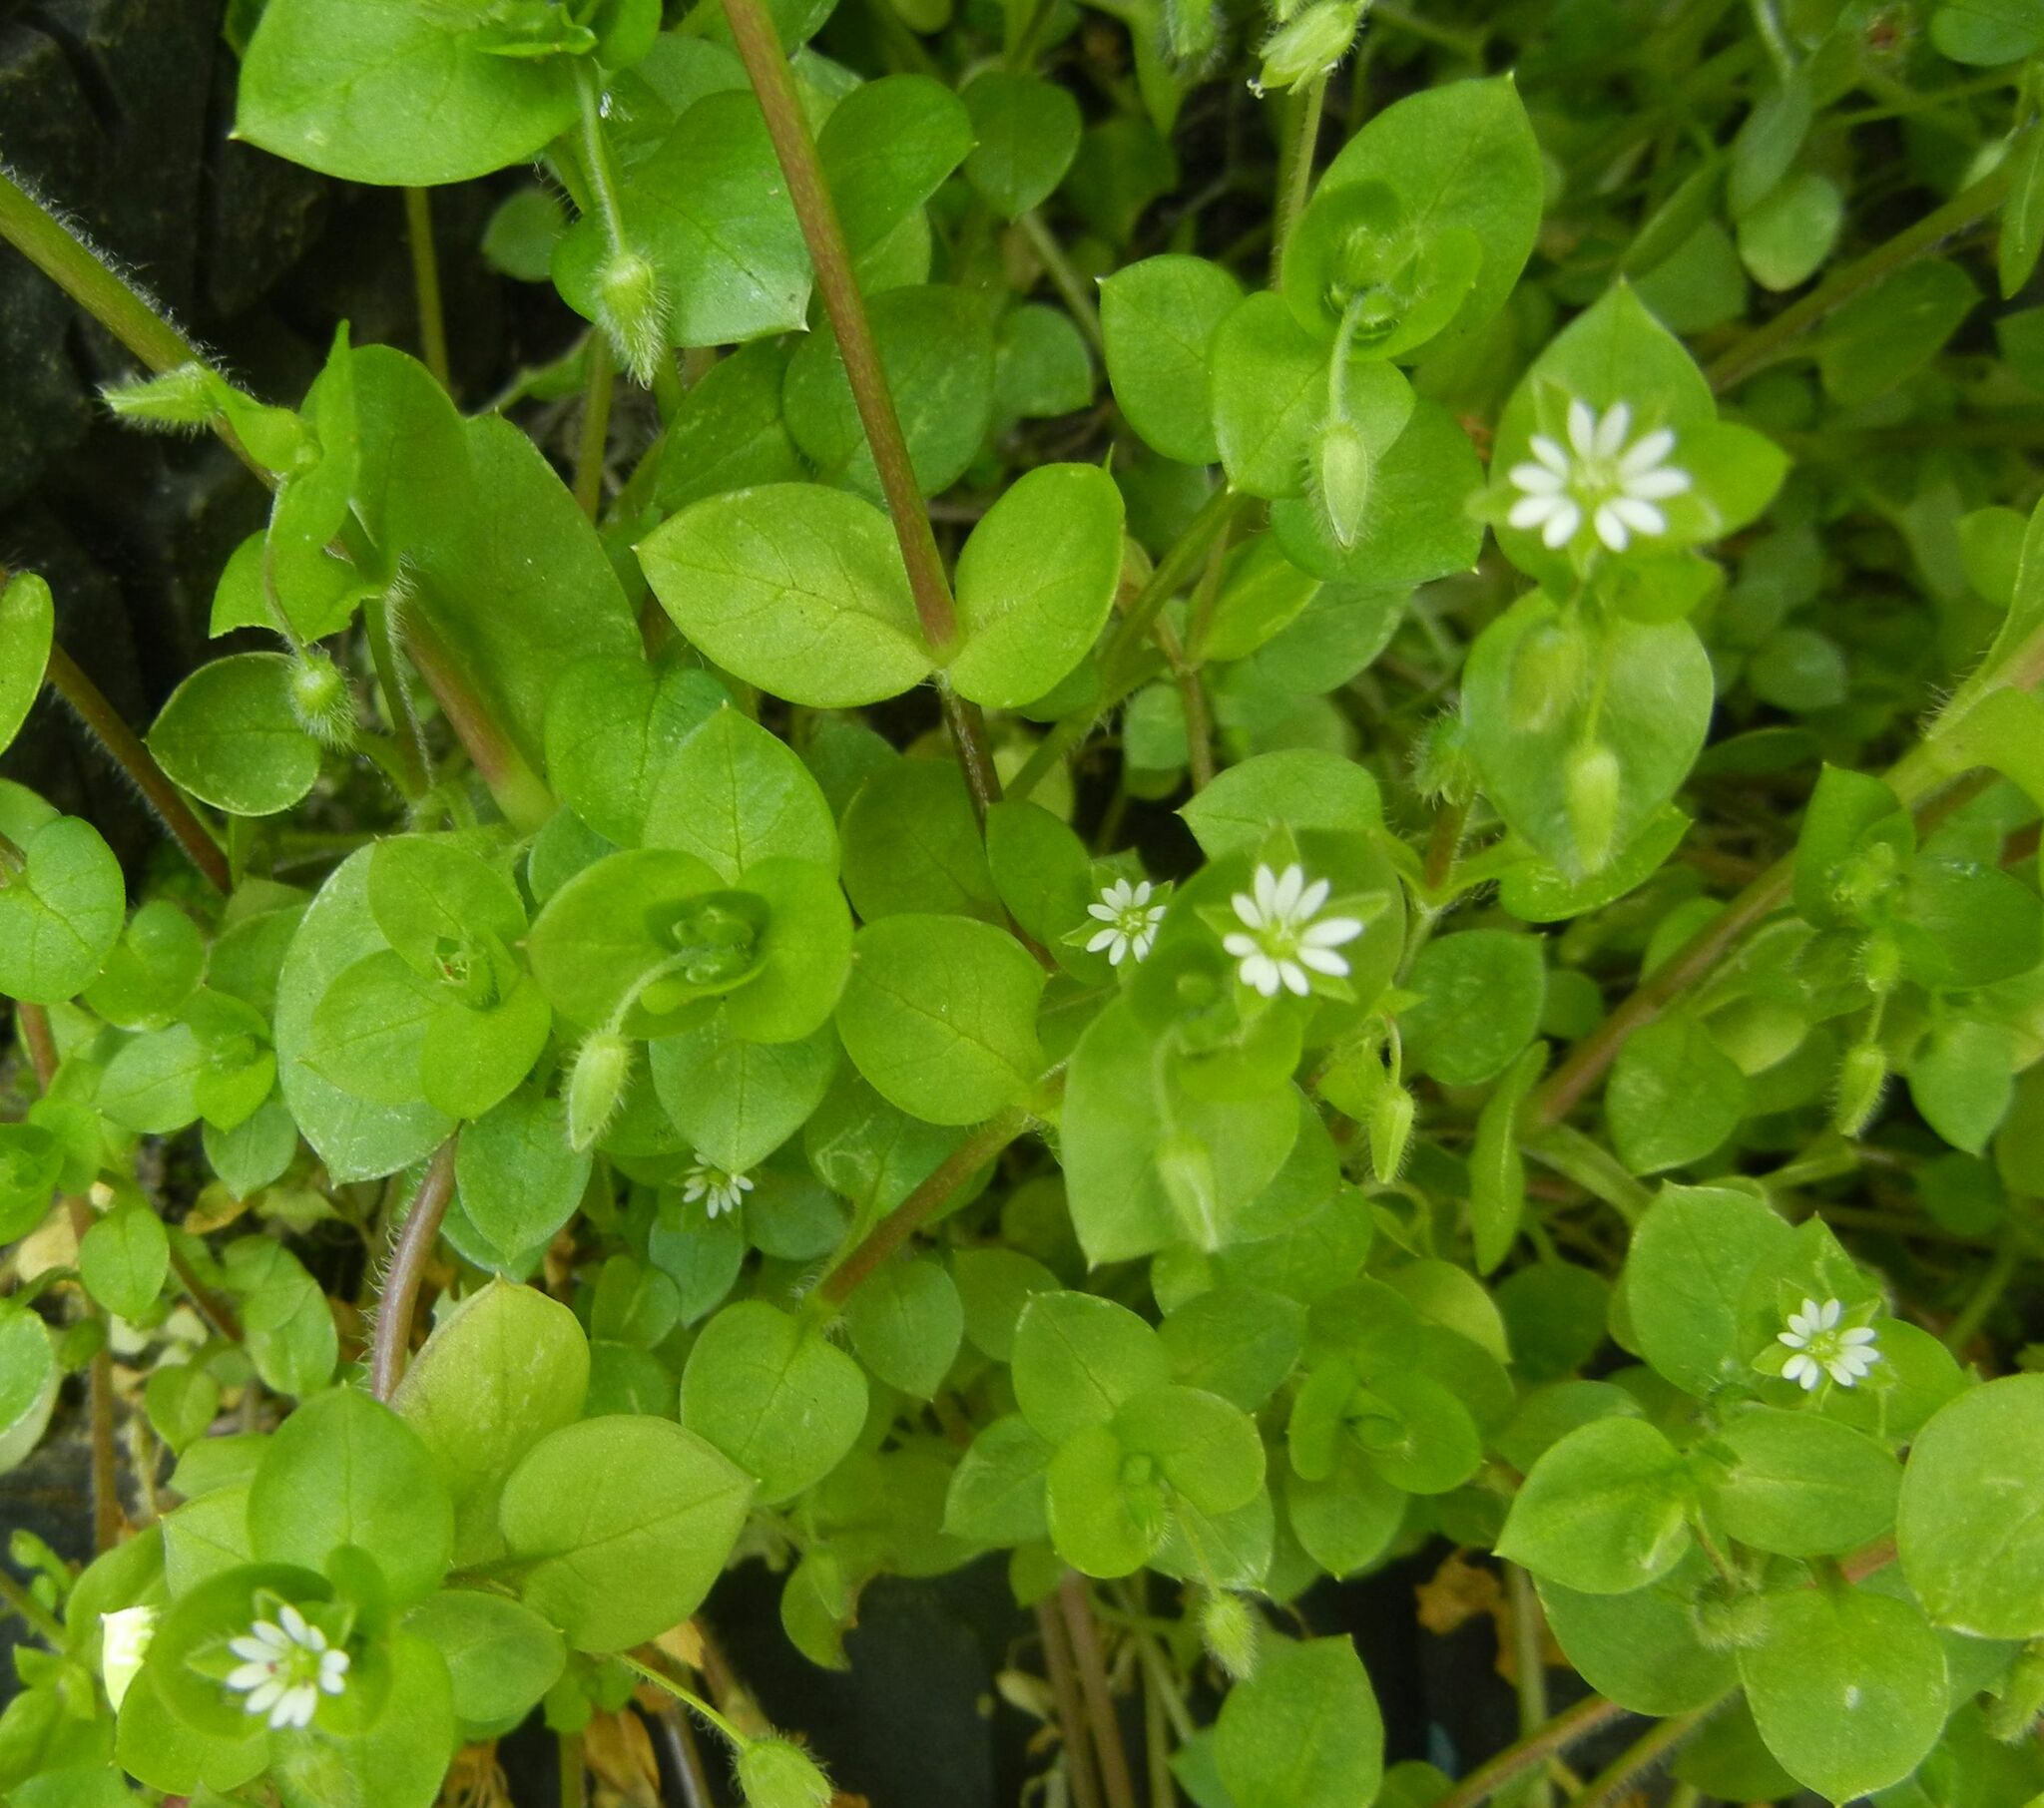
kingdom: Plantae
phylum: Tracheophyta
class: Magnoliopsida
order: Caryophyllales
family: Caryophyllaceae
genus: Stellaria
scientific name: Stellaria media
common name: Common chickweed
